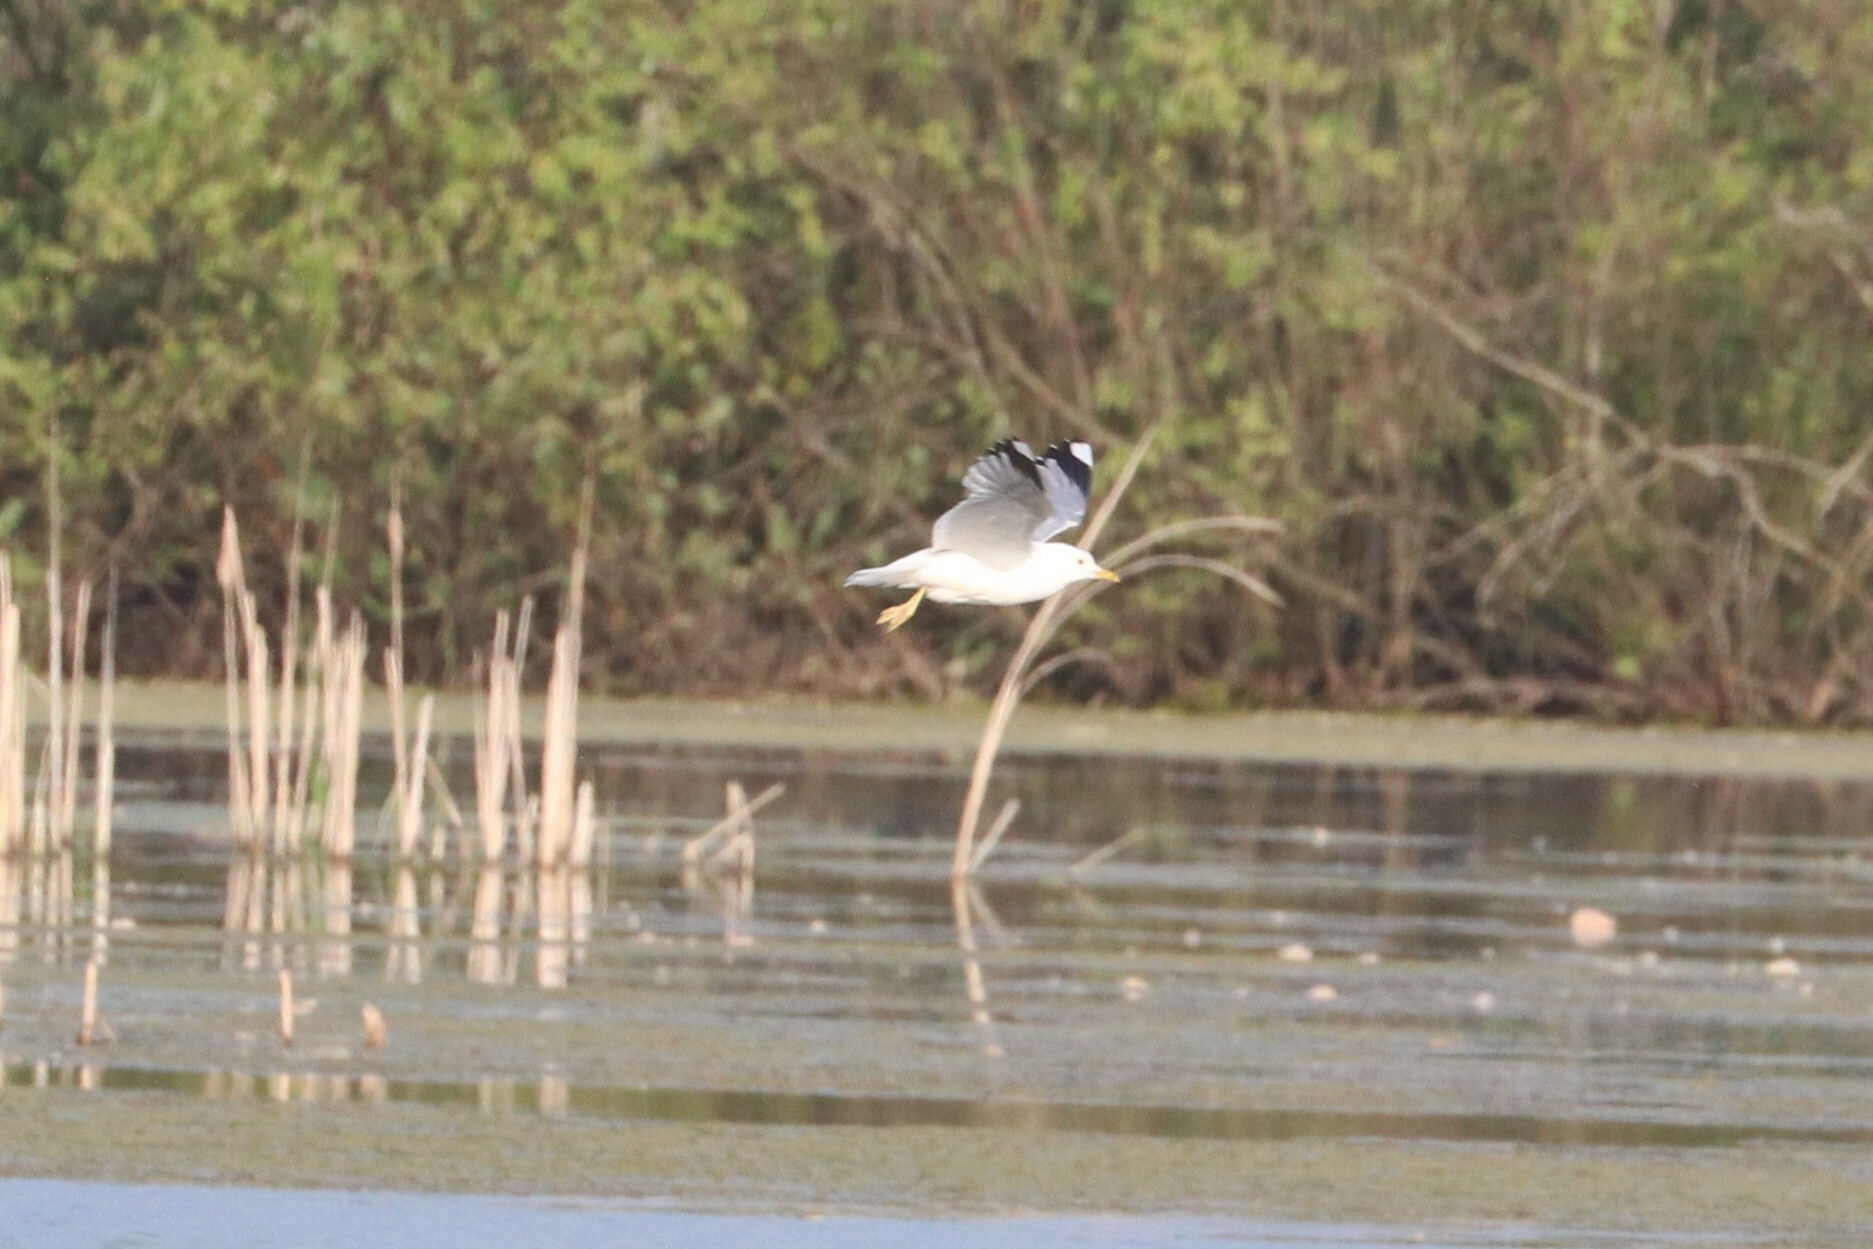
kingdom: Animalia
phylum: Chordata
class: Aves
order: Charadriiformes
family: Laridae
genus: Larus
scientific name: Larus canus
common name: Mew gull
